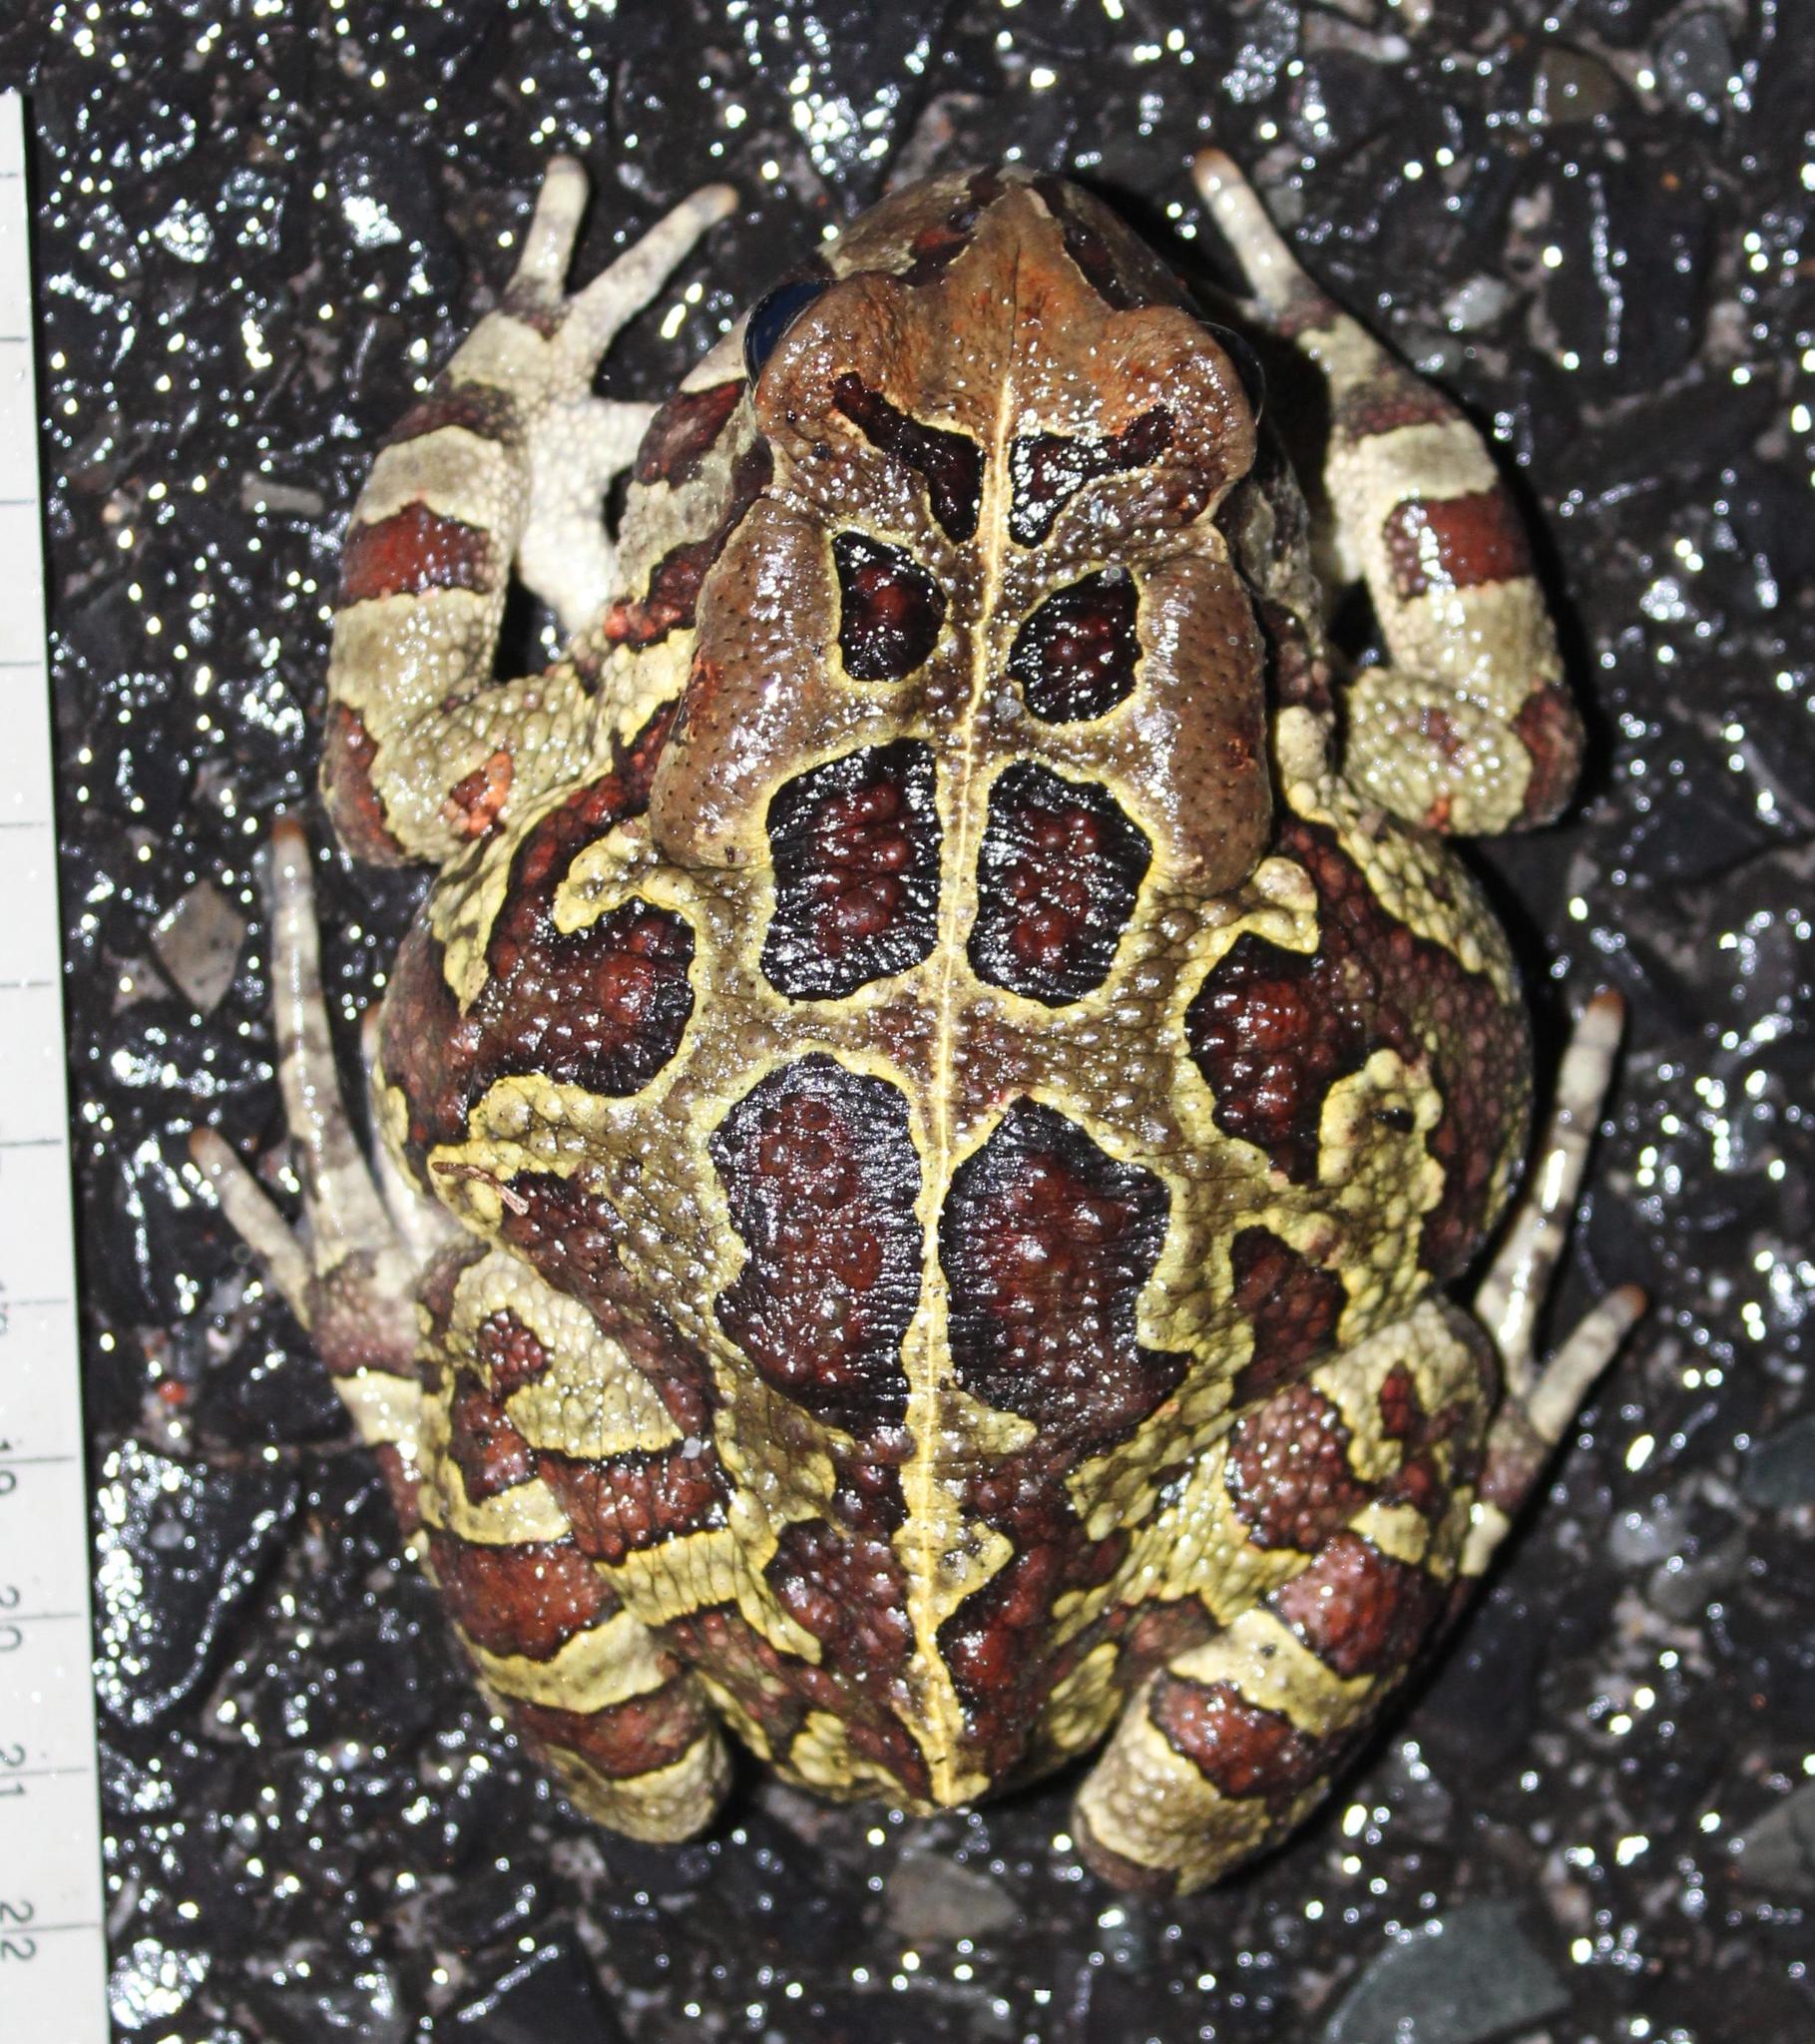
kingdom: Animalia
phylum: Chordata
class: Amphibia
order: Anura
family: Bufonidae
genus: Sclerophrys
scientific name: Sclerophrys pantherina
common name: Panther toad
